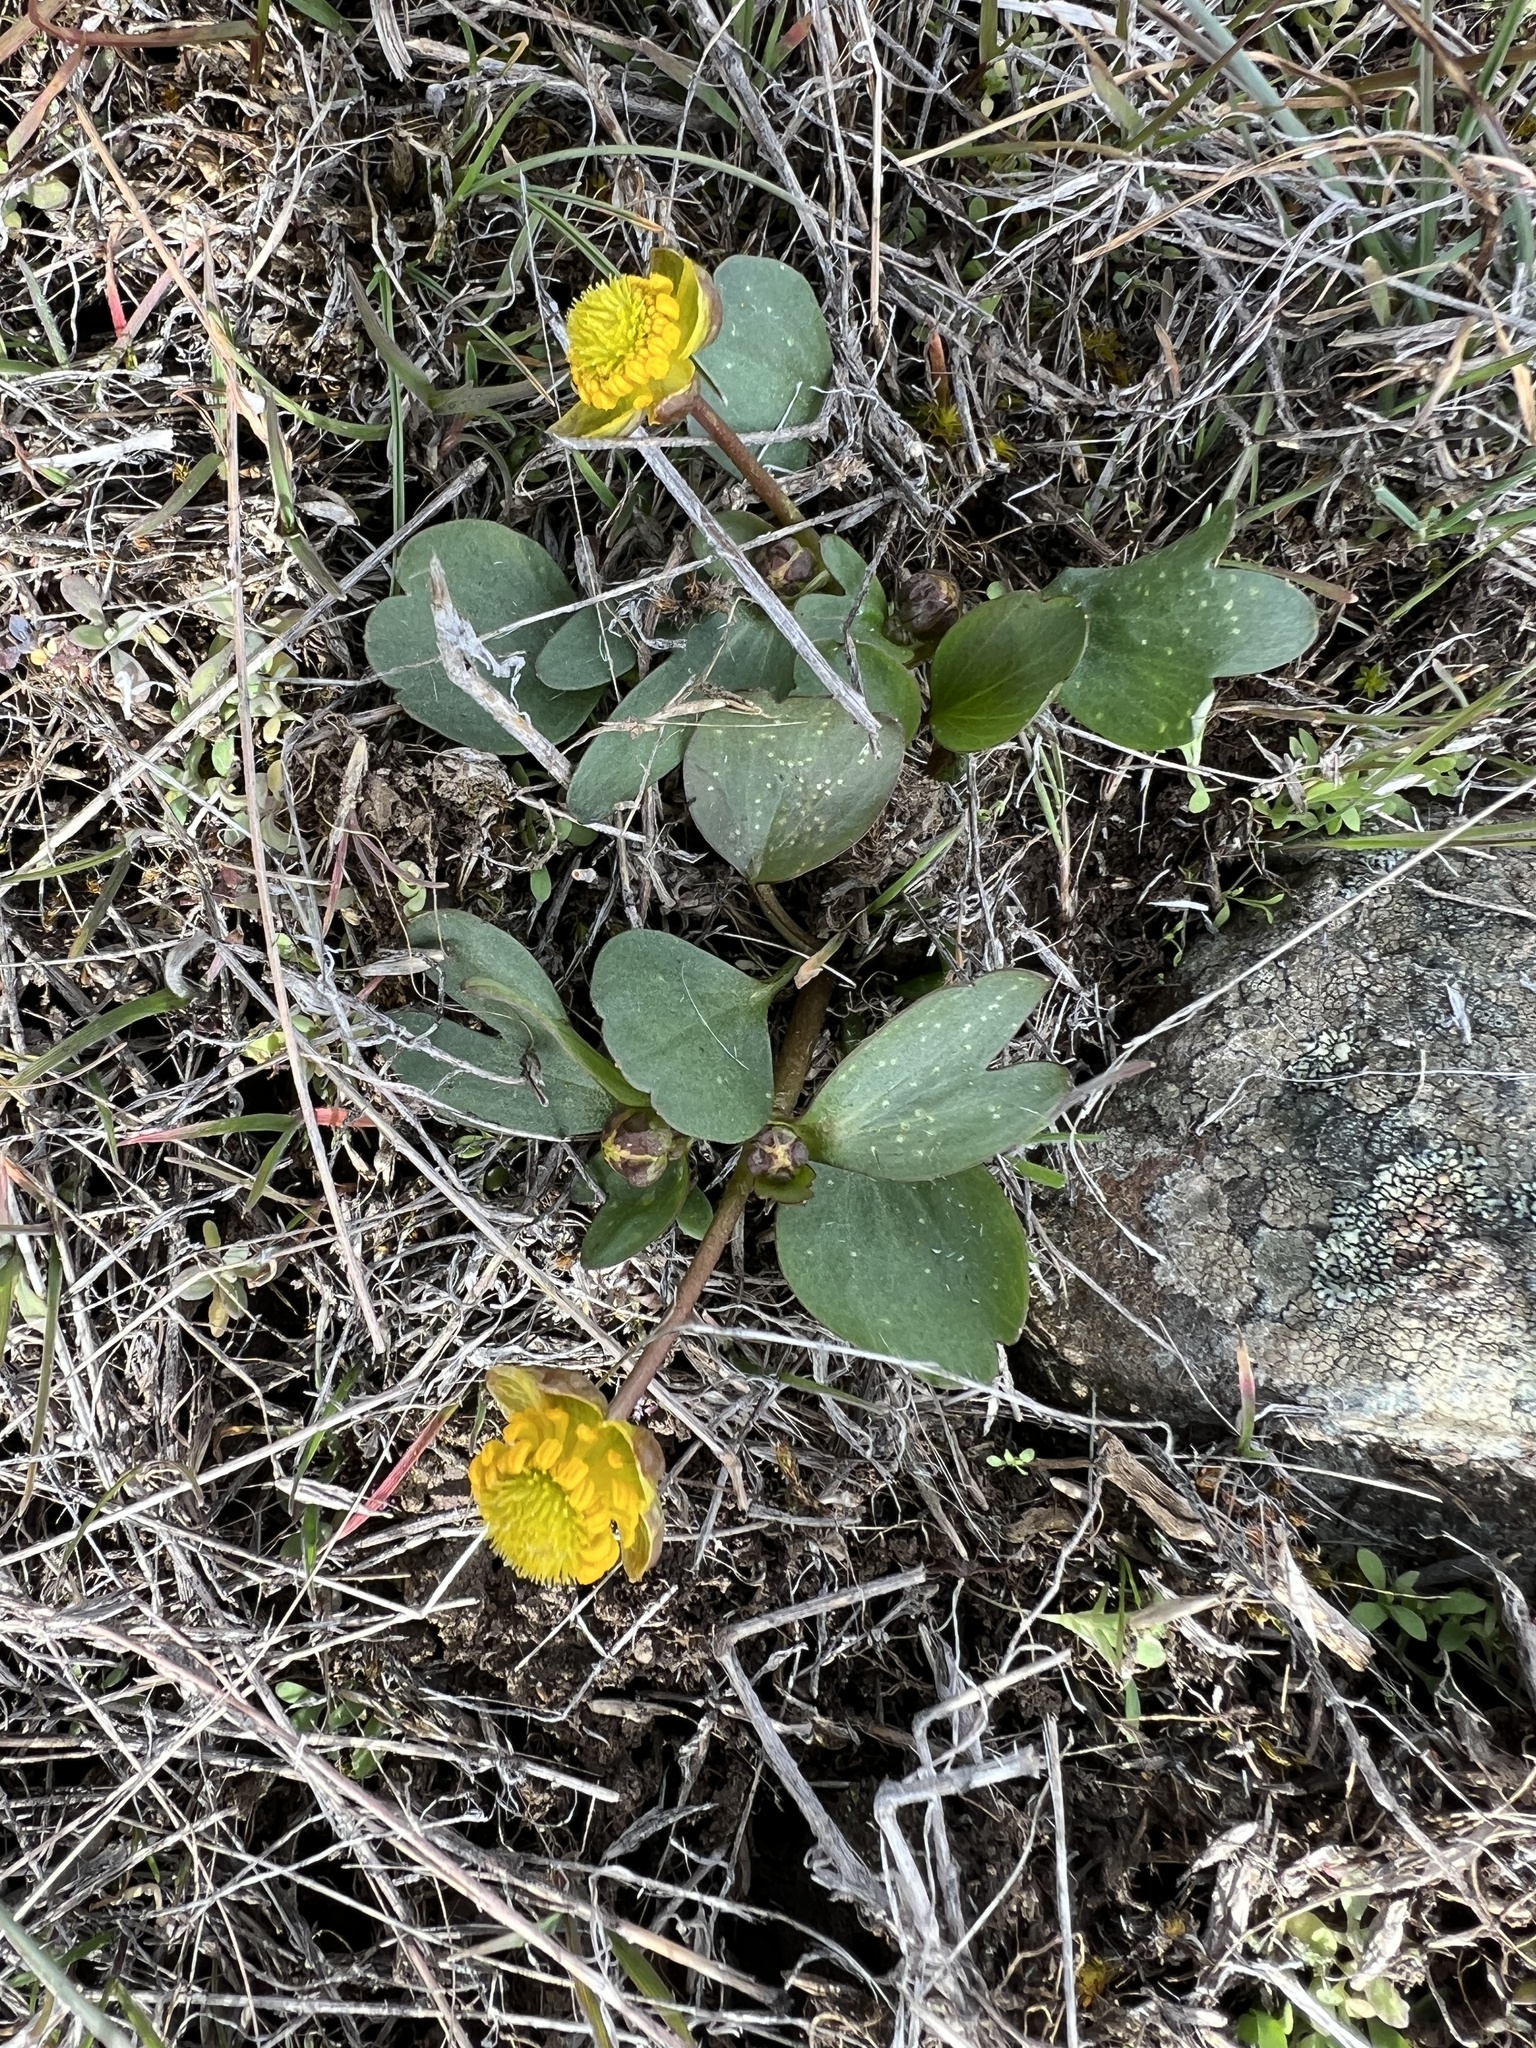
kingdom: Plantae
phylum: Tracheophyta
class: Magnoliopsida
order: Ranunculales
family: Ranunculaceae
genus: Ranunculus
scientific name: Ranunculus glaberrimus
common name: Sagebrush buttercup
